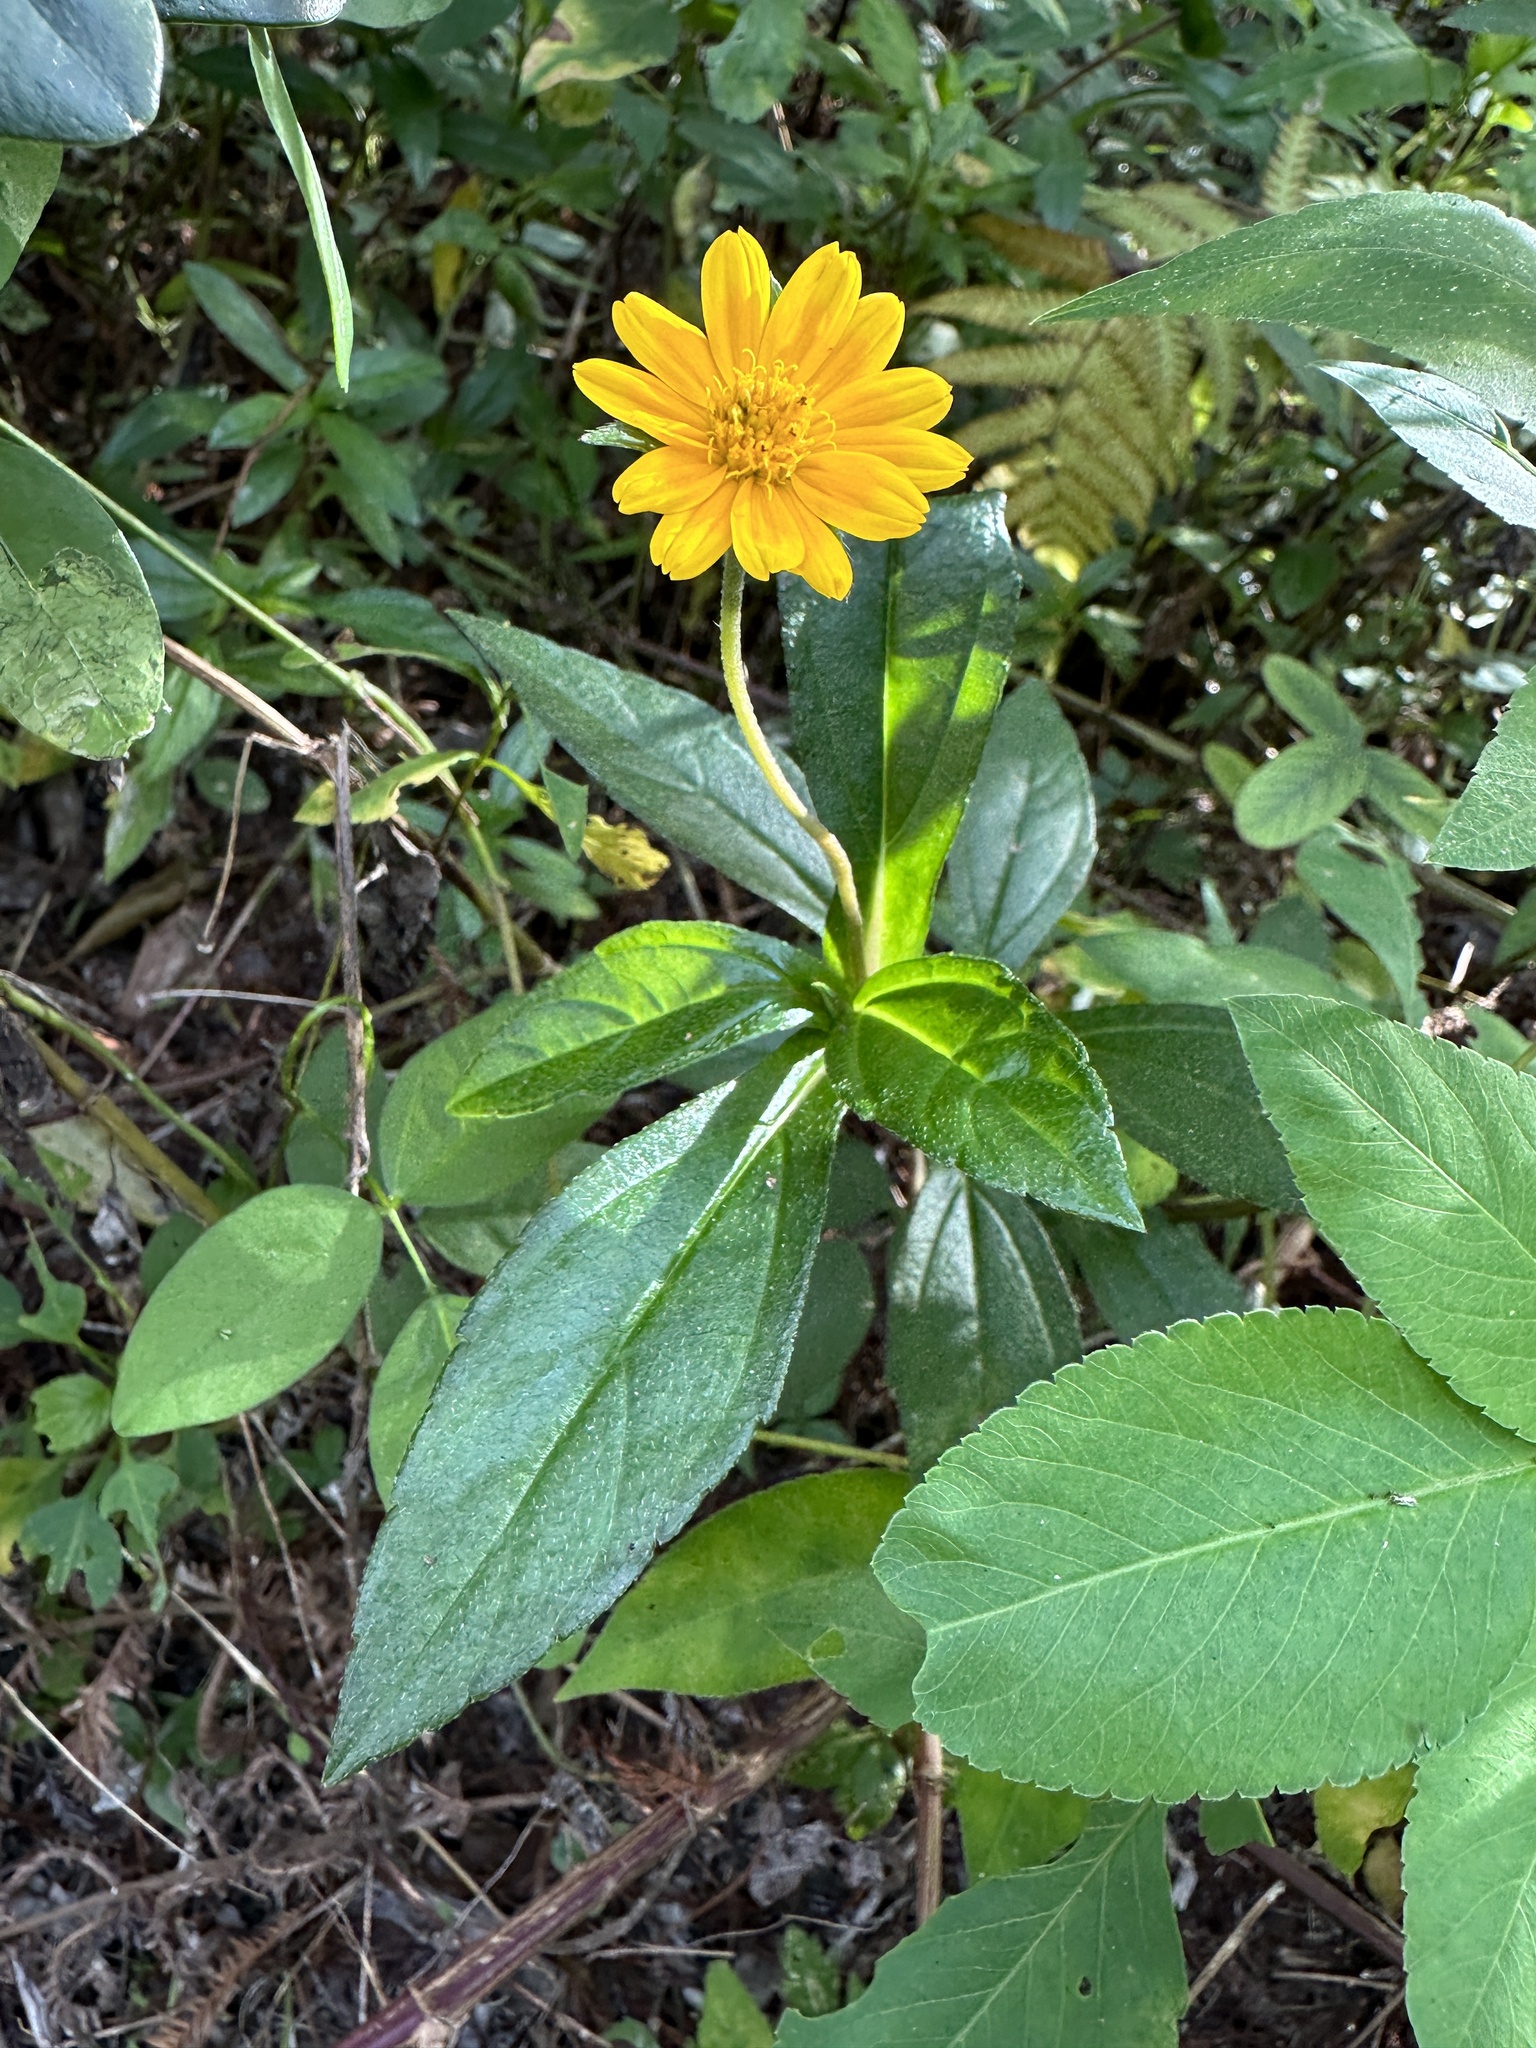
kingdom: Plantae
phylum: Tracheophyta
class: Magnoliopsida
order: Asterales
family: Asteraceae
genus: Sphagneticola
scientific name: Sphagneticola trilobata
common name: Bay biscayne creeping-oxeye
